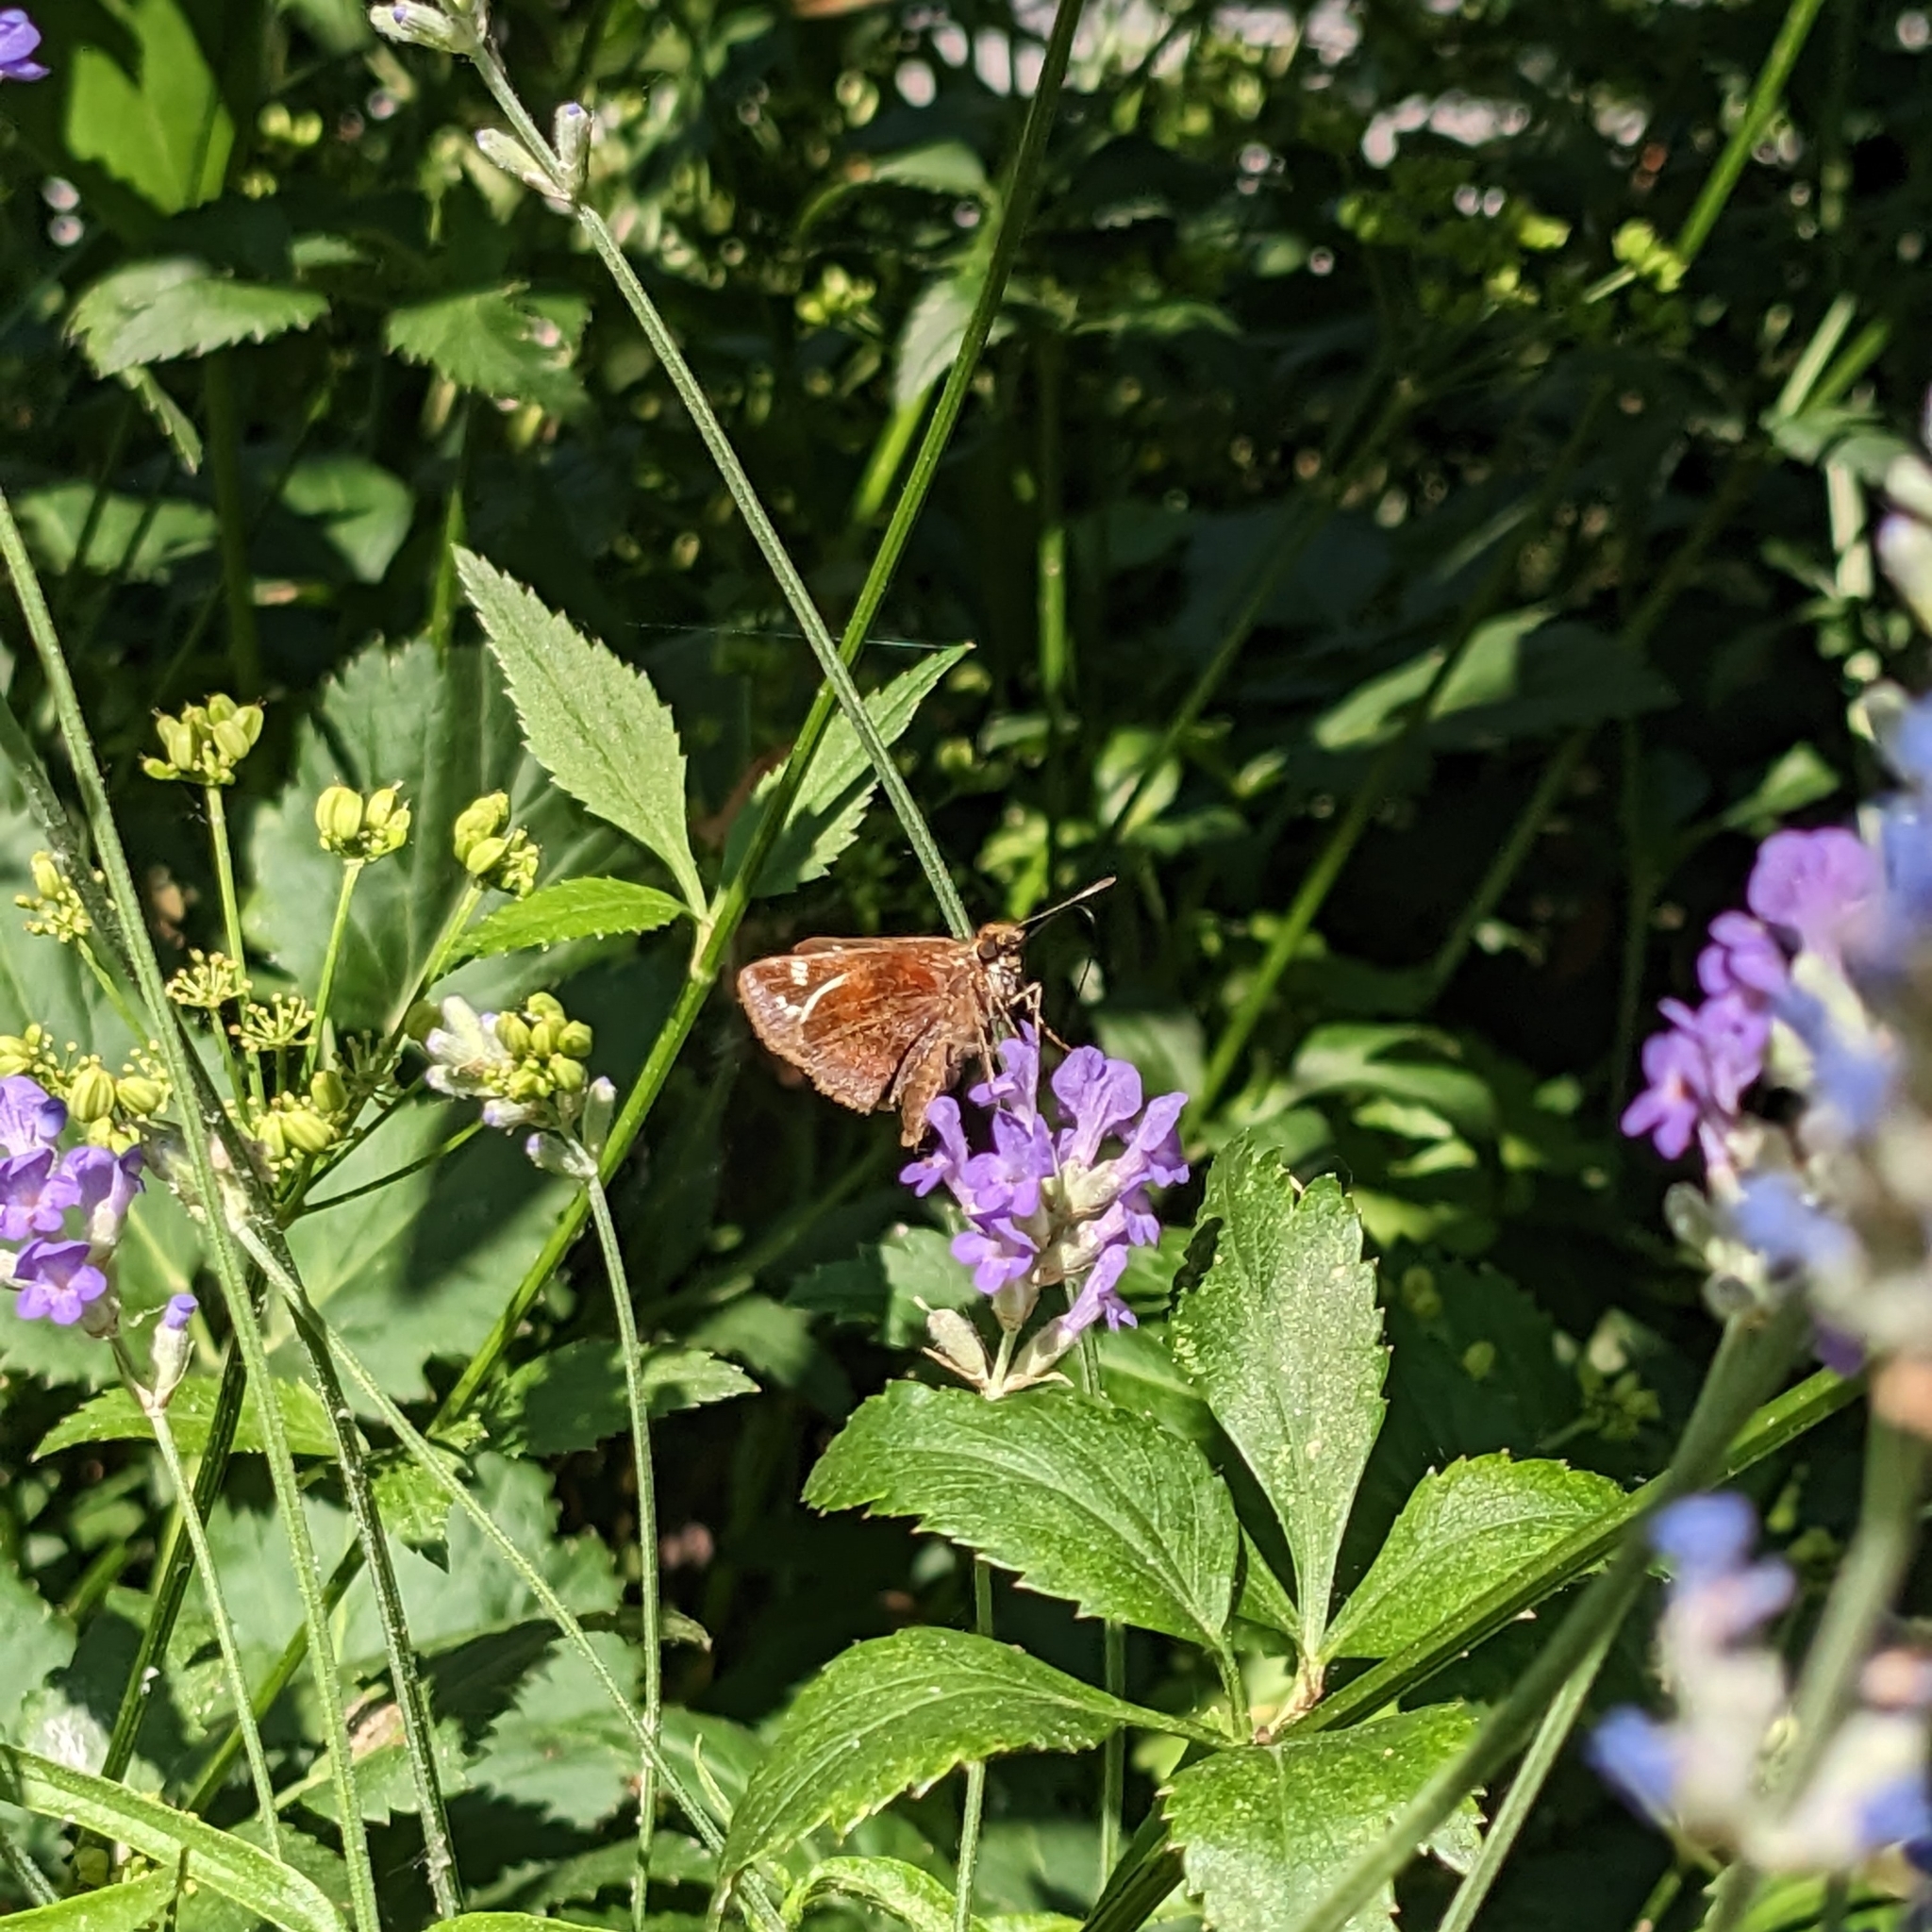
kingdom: Animalia
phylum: Arthropoda
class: Insecta
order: Lepidoptera
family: Hesperiidae
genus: Lon
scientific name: Lon zabulon
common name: Zabulon skipper
